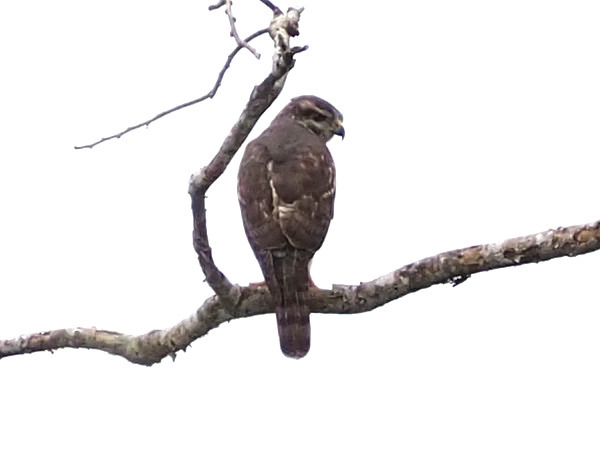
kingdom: Animalia
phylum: Chordata
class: Aves
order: Accipitriformes
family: Accipitridae
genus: Buteo
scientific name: Buteo nitidus
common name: Grey-lined hawk
